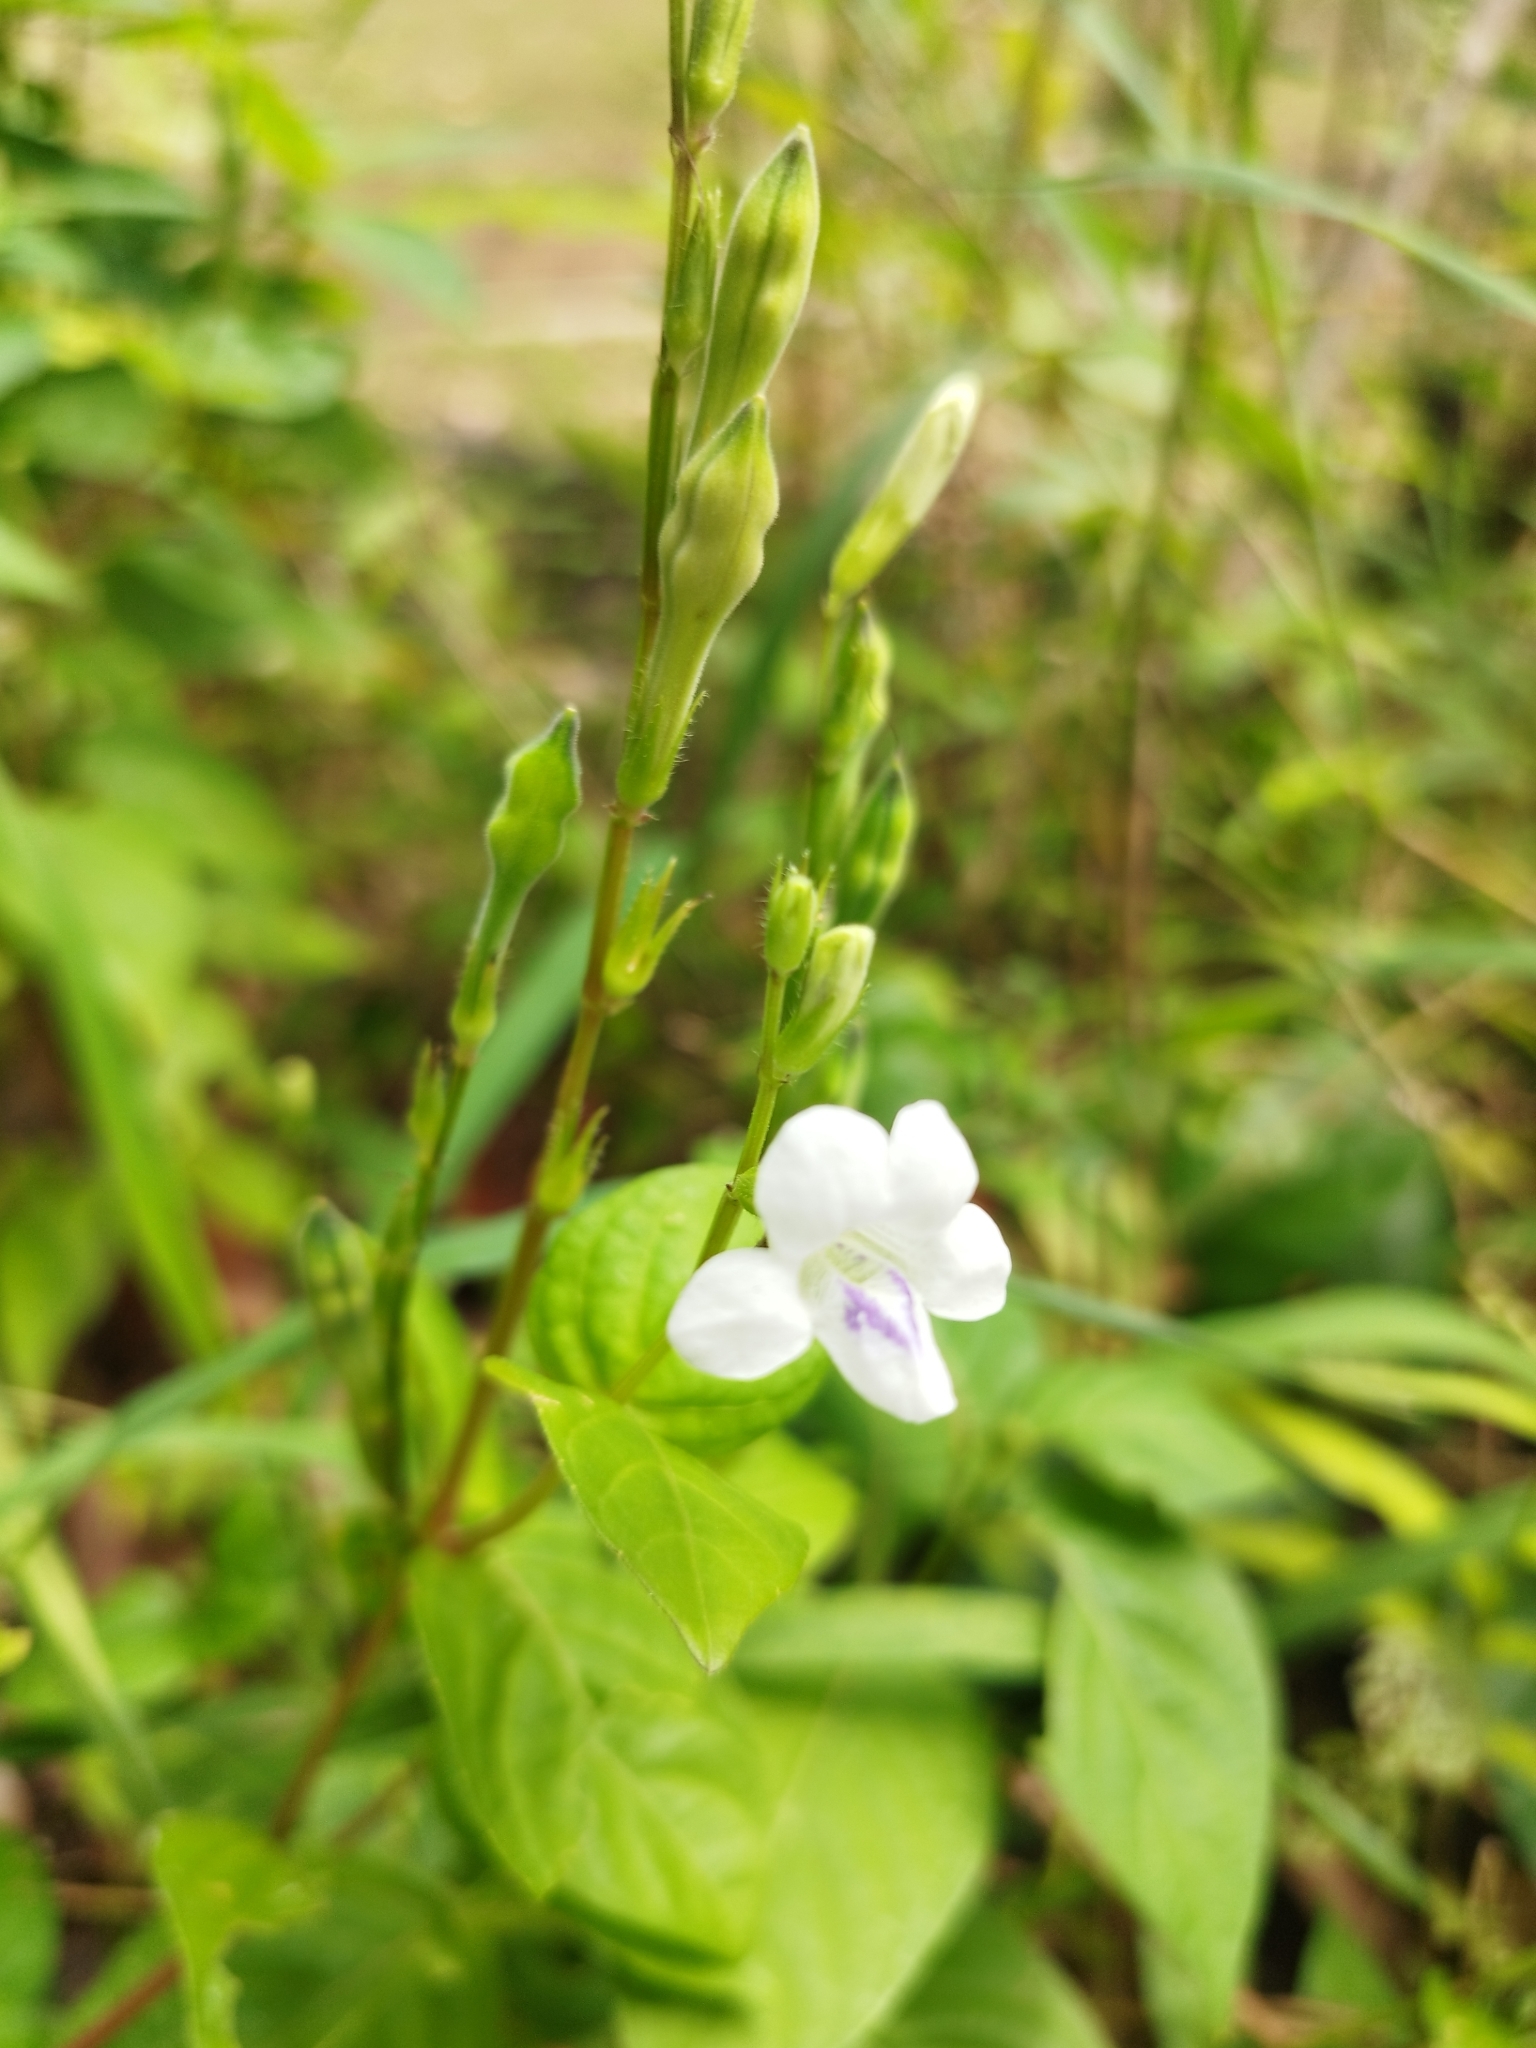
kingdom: Plantae
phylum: Tracheophyta
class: Magnoliopsida
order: Lamiales
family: Acanthaceae
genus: Asystasia
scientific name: Asystasia intrusa
